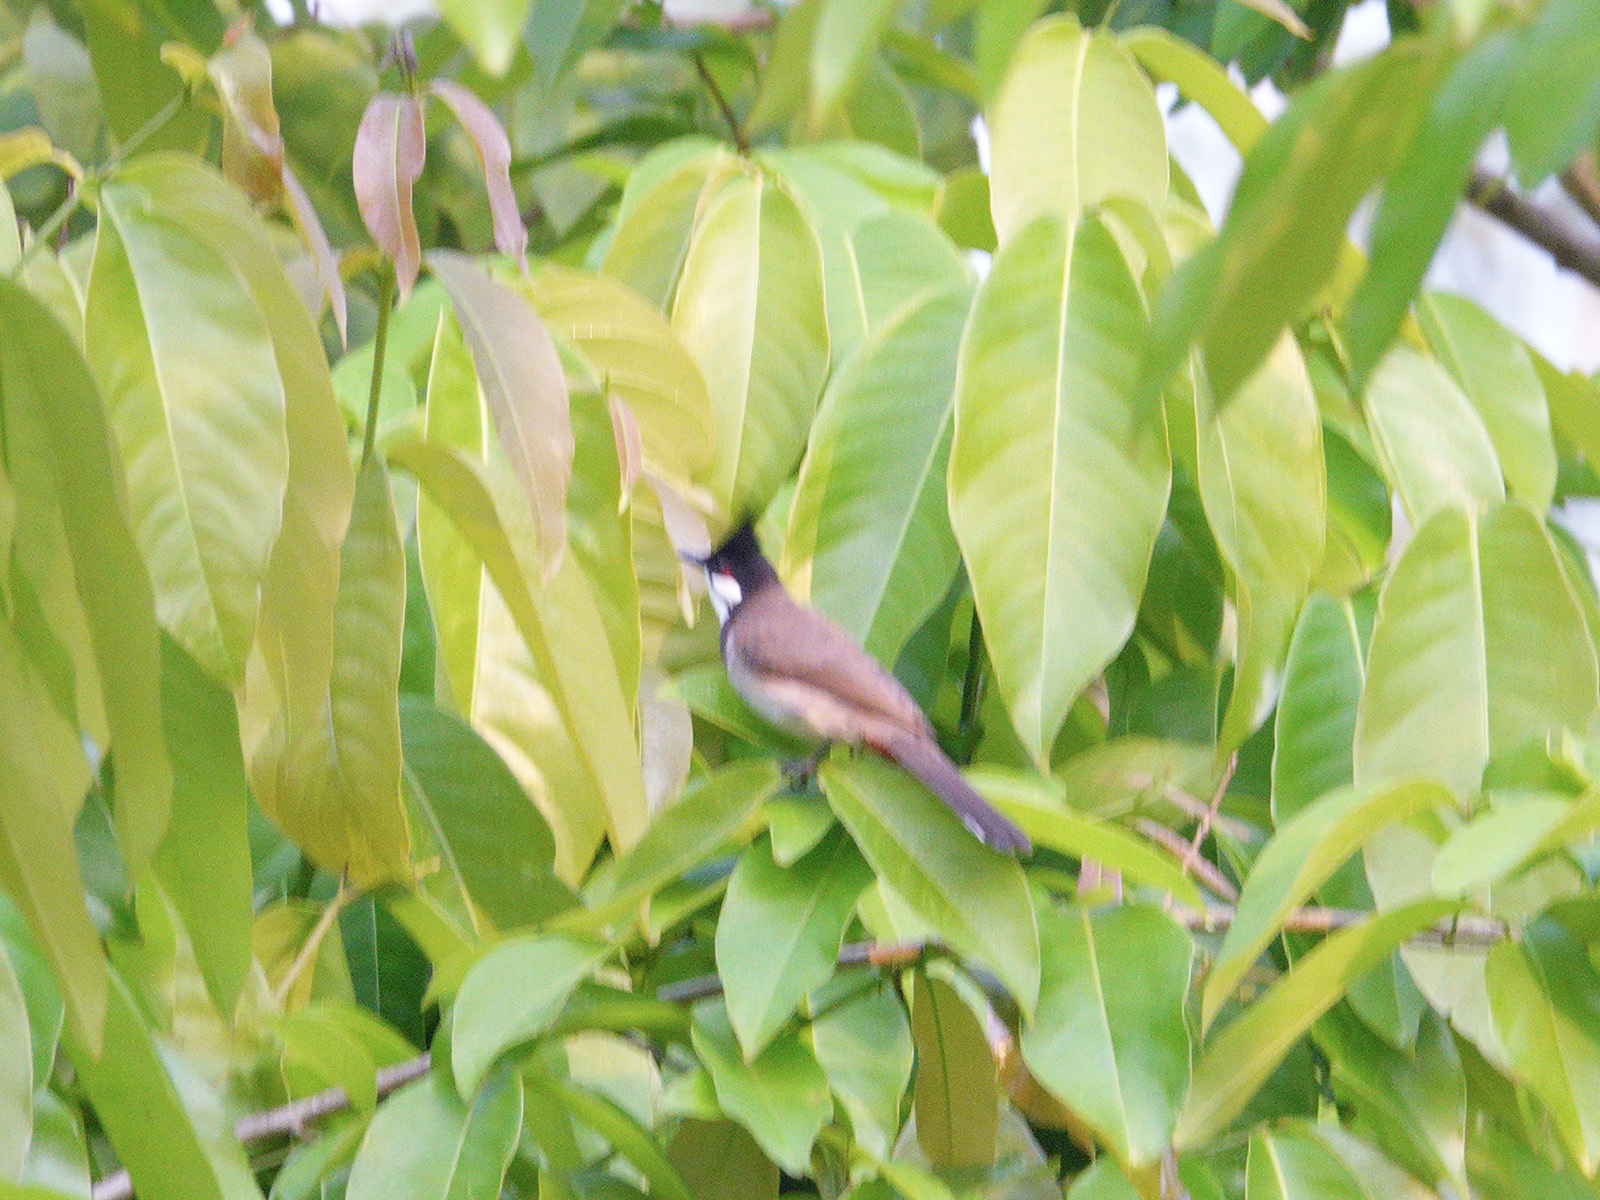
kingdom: Animalia
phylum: Chordata
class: Aves
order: Passeriformes
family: Pycnonotidae
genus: Pycnonotus
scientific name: Pycnonotus jocosus
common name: Red-whiskered bulbul
